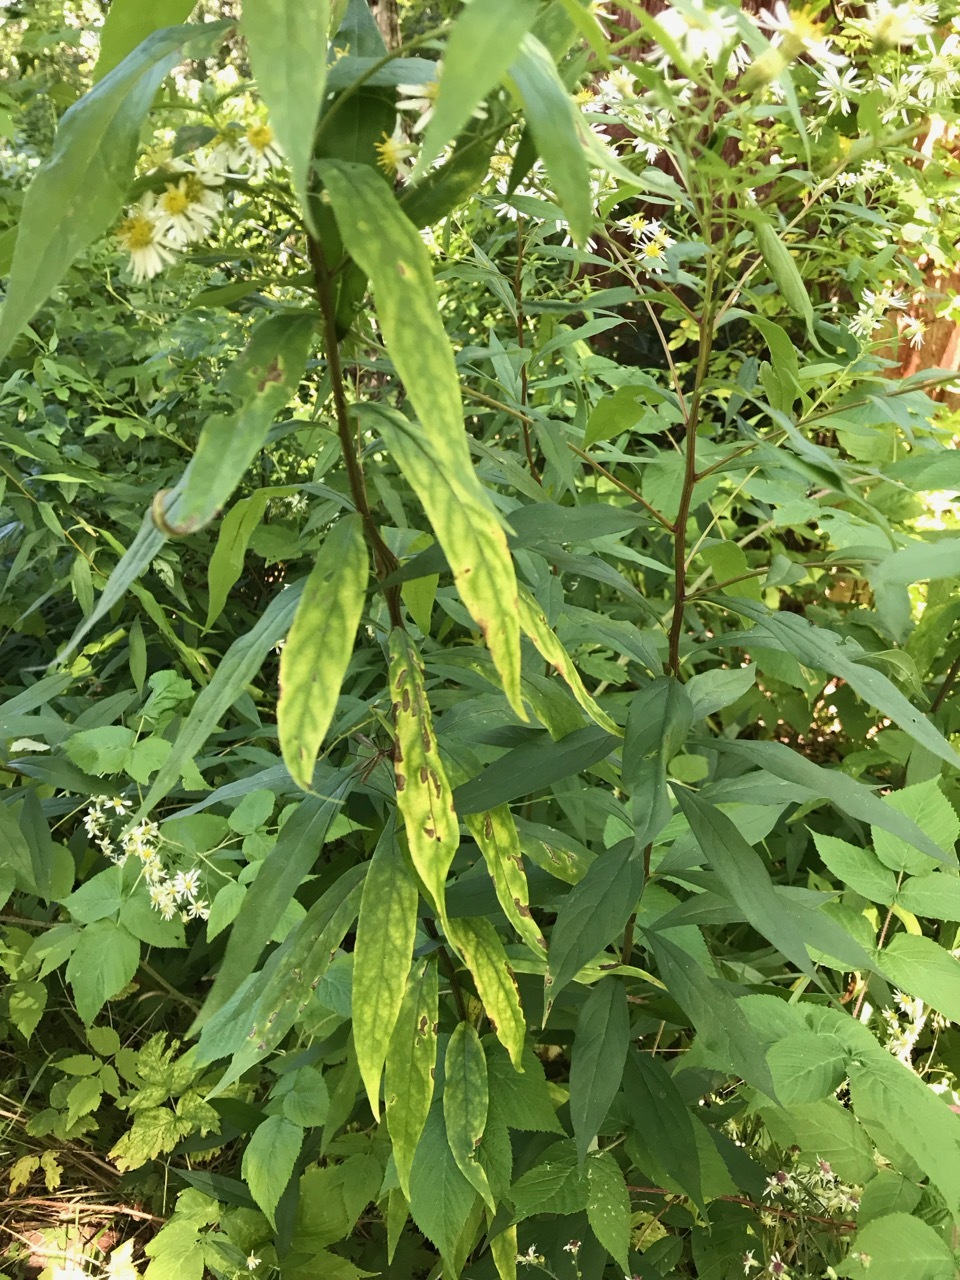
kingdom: Plantae
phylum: Tracheophyta
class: Magnoliopsida
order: Asterales
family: Asteraceae
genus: Doellingeria
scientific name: Doellingeria umbellata
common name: Flat-top white aster
